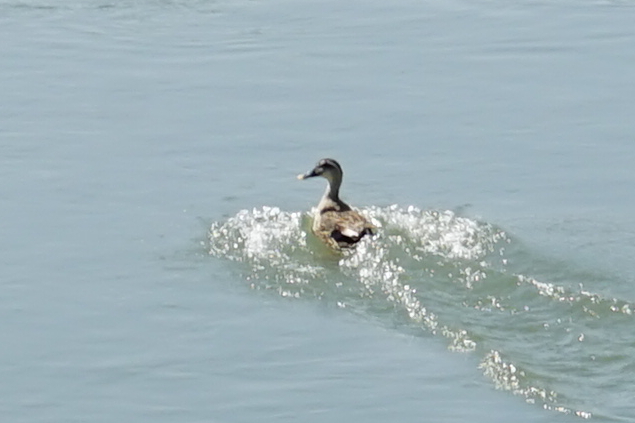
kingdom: Animalia
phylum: Chordata
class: Aves
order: Anseriformes
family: Anatidae
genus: Anas
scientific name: Anas zonorhyncha
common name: Eastern spot-billed duck
